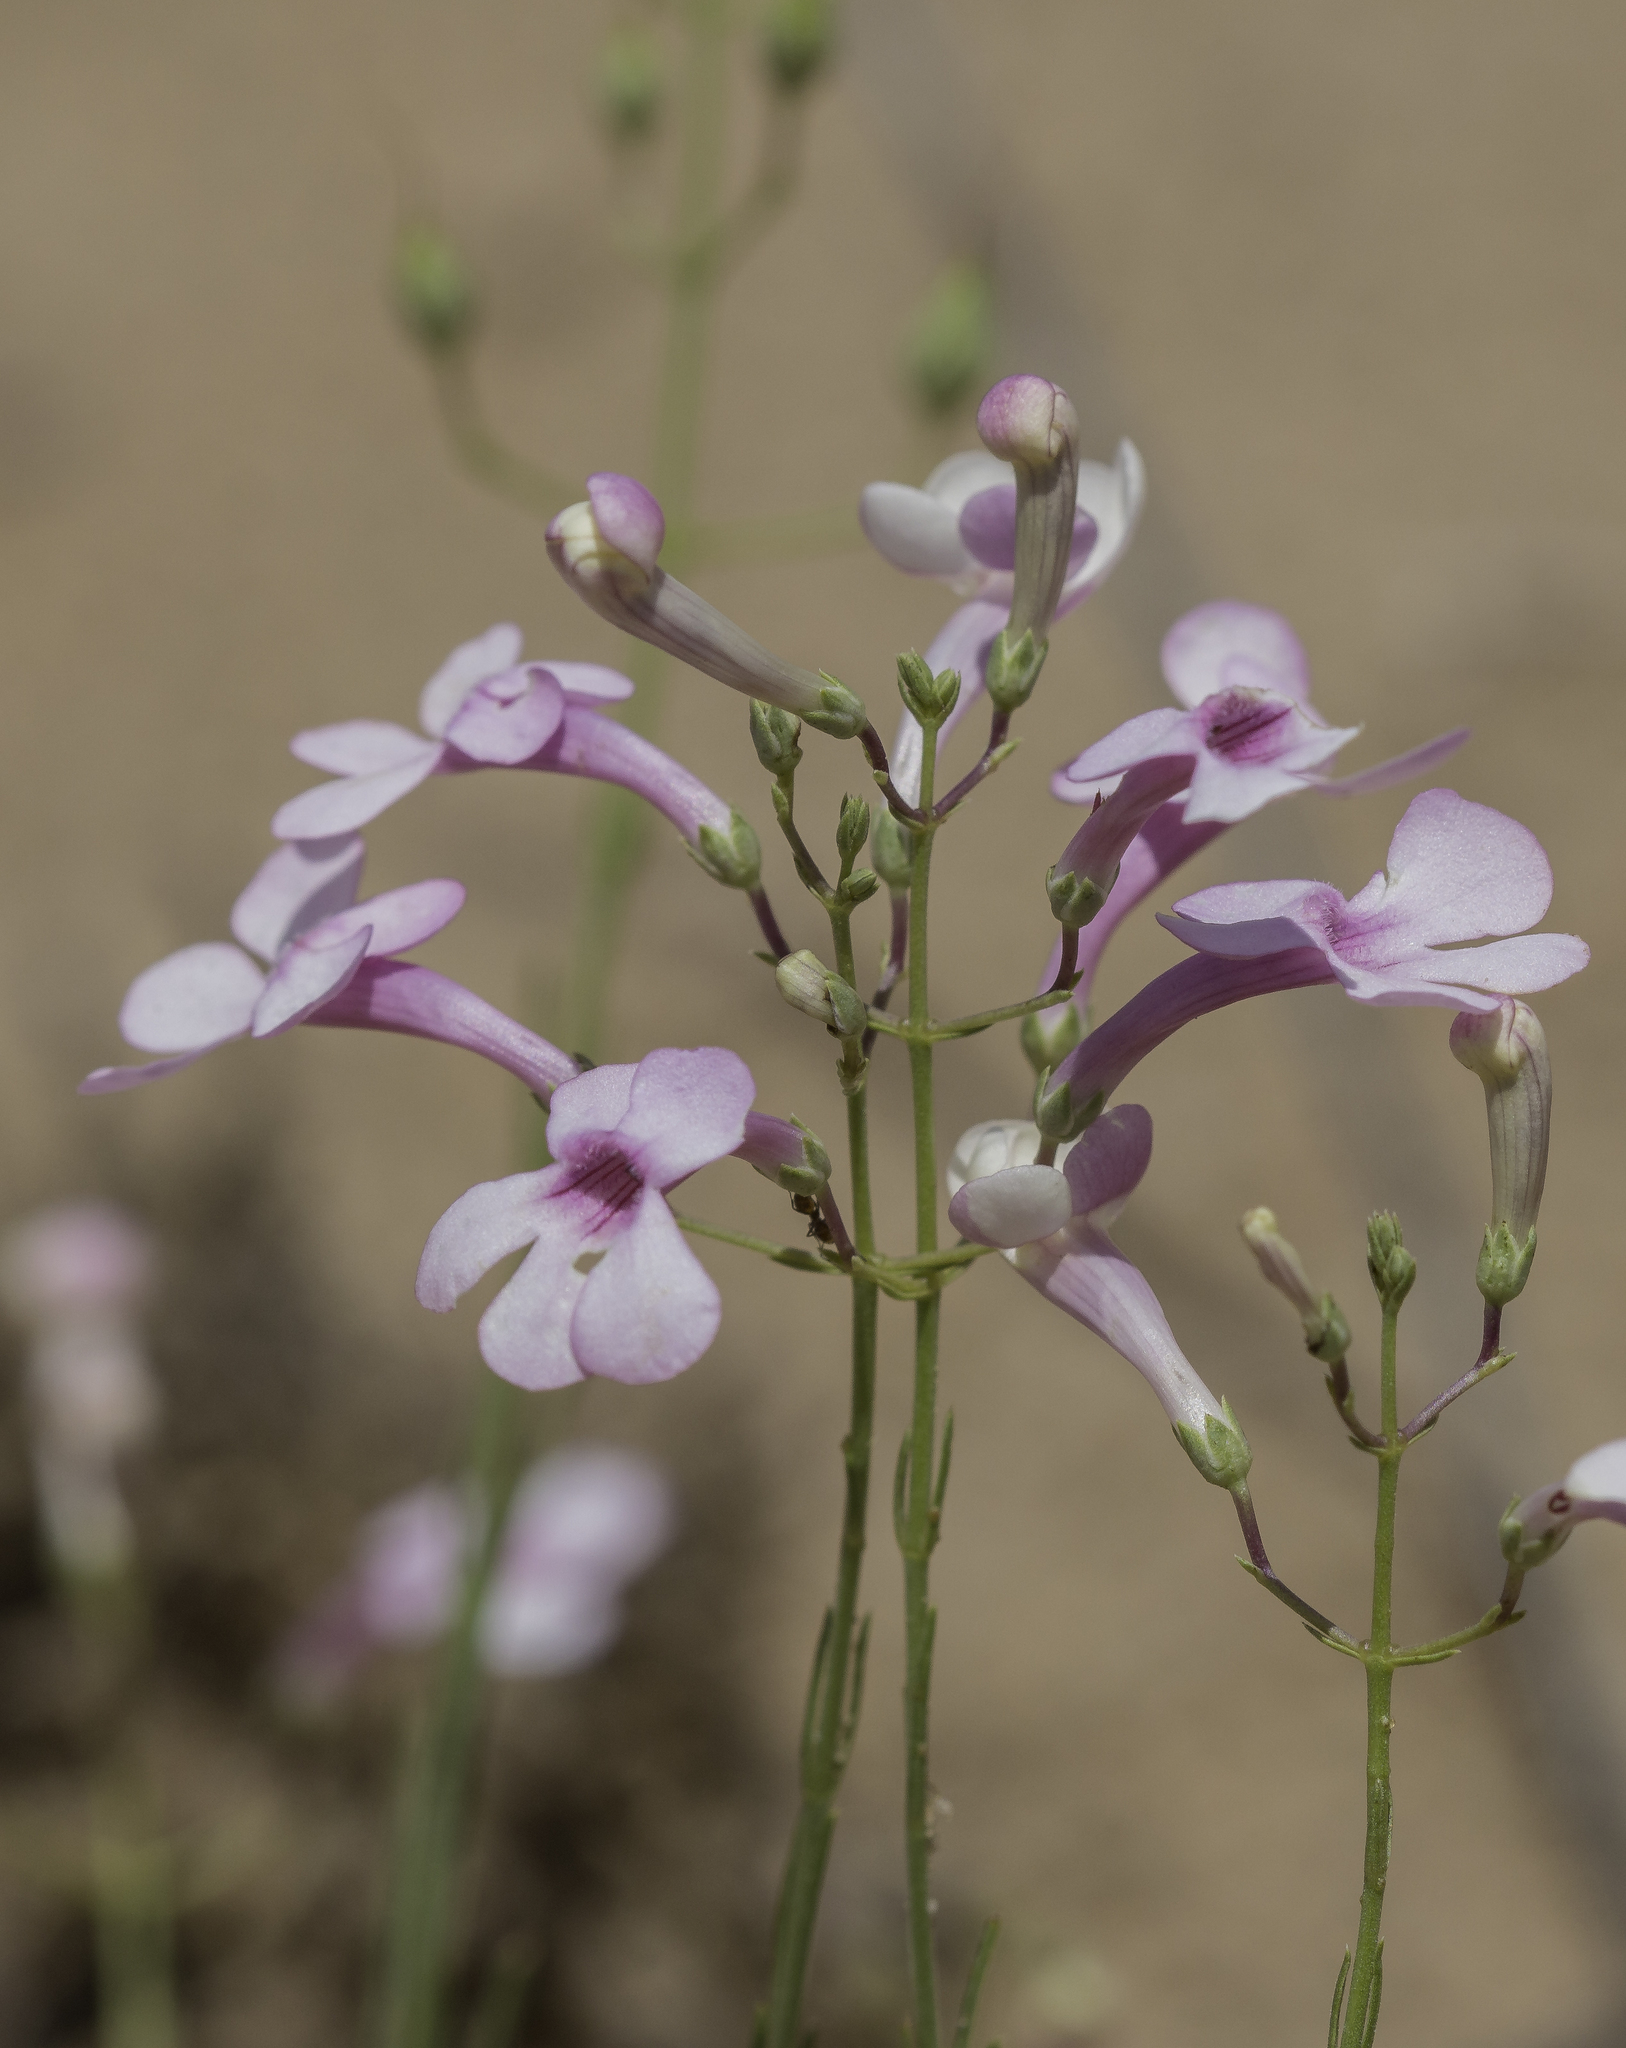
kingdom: Plantae
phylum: Tracheophyta
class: Magnoliopsida
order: Lamiales
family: Plantaginaceae
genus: Penstemon
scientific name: Penstemon ambiguus
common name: Bush penstemon
